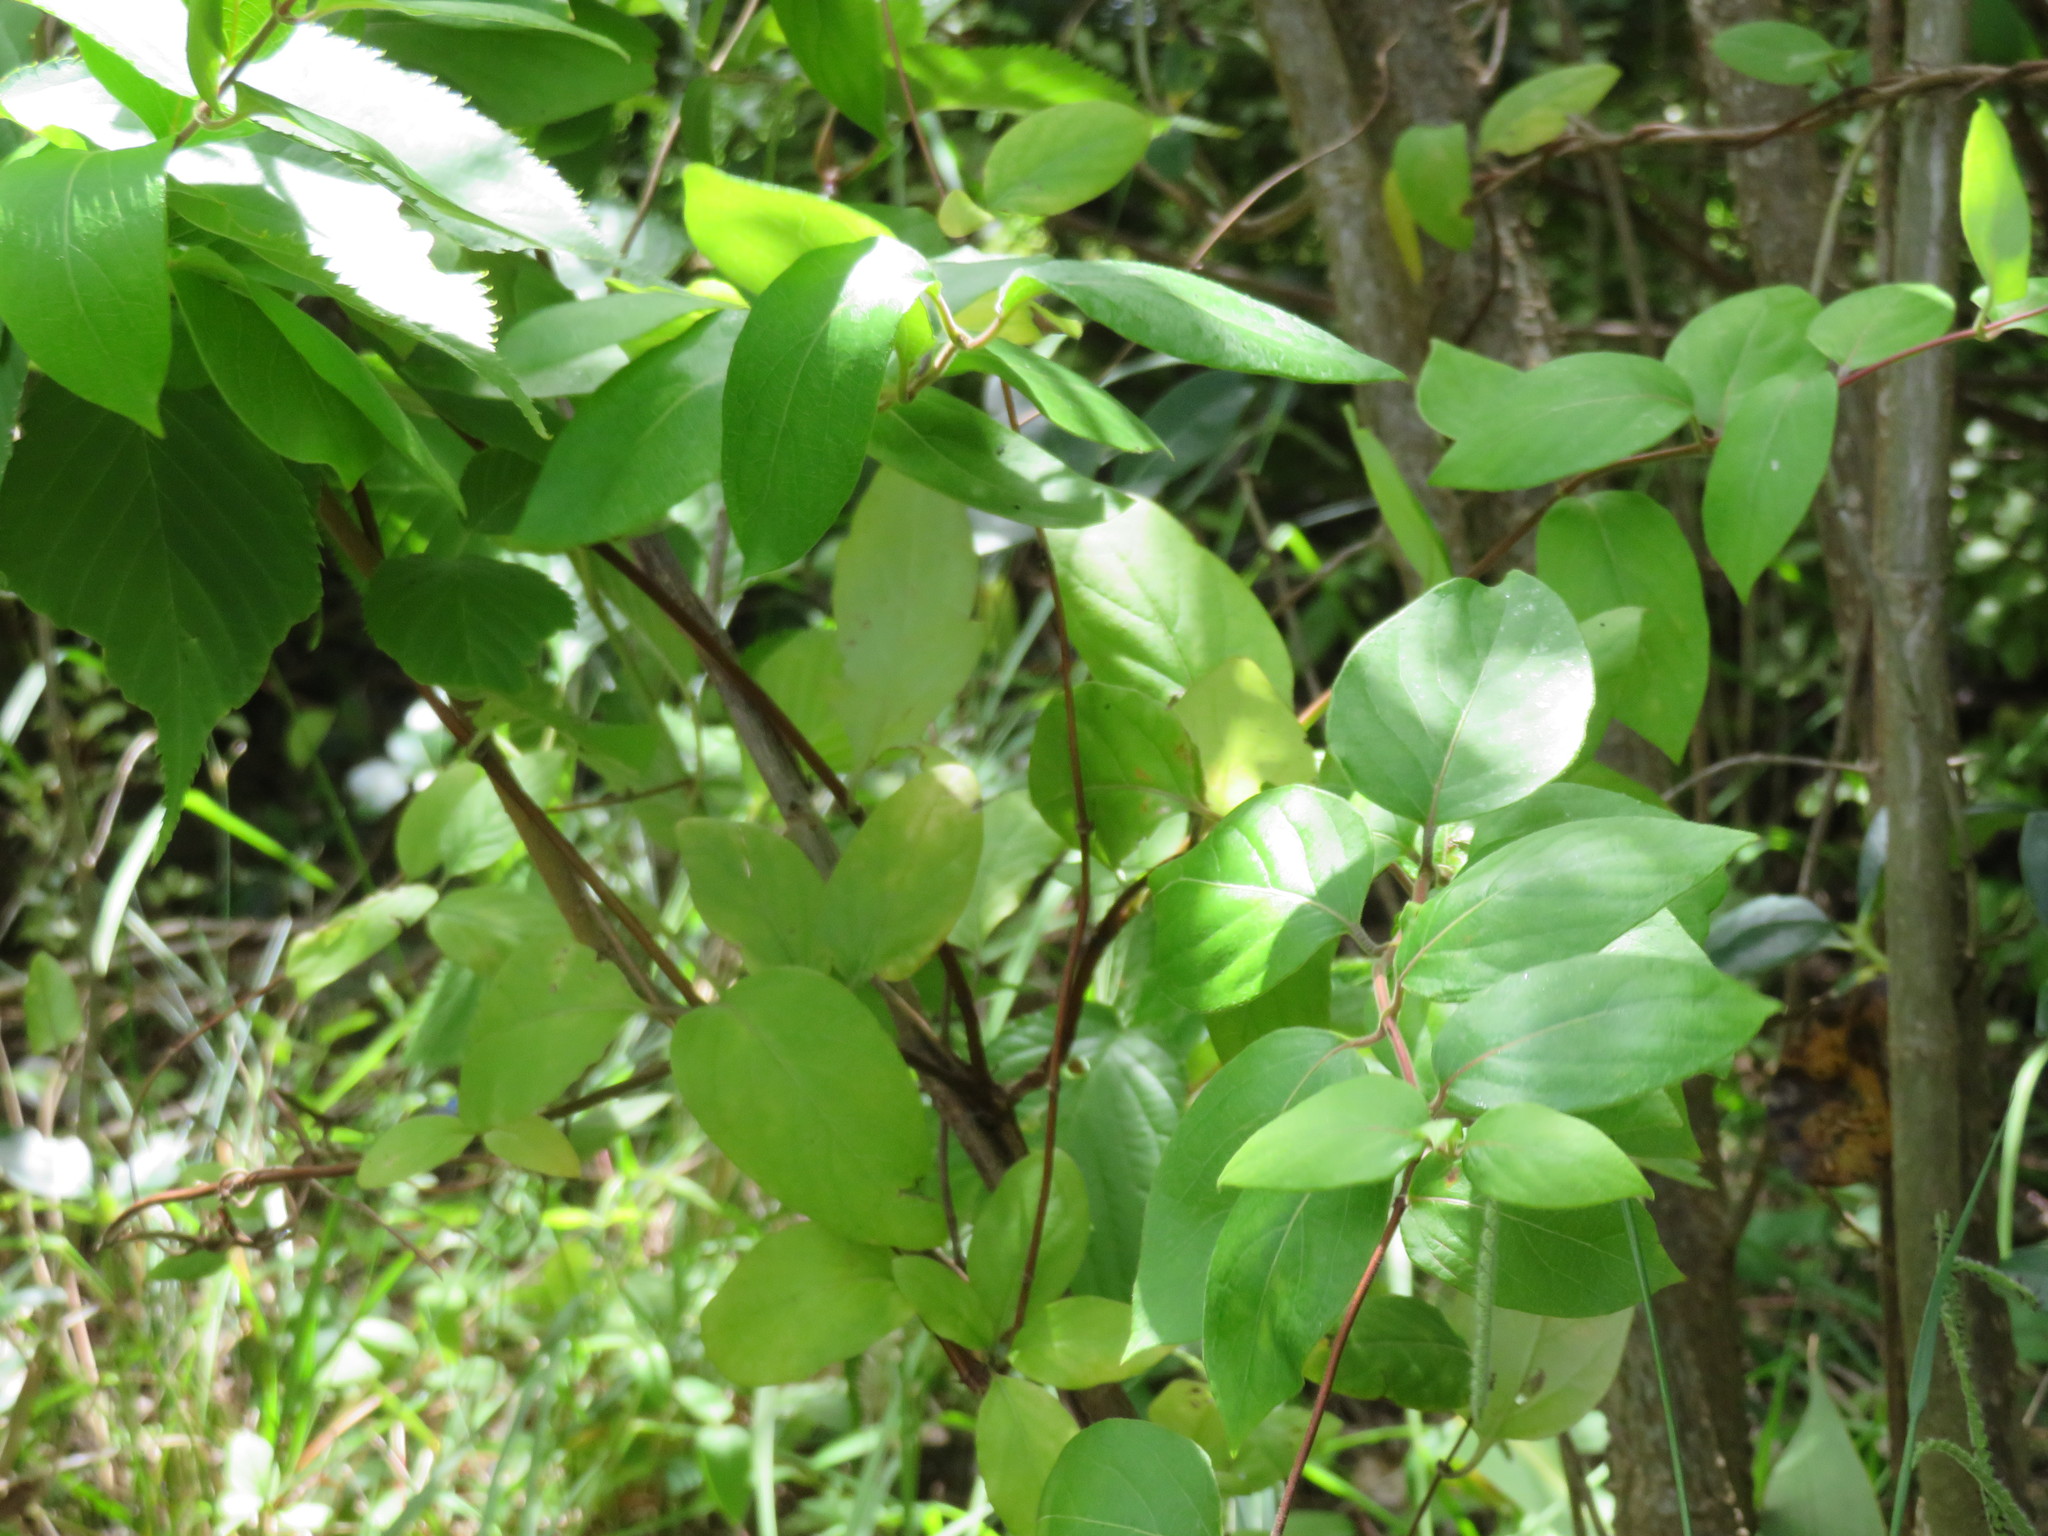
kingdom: Plantae
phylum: Tracheophyta
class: Magnoliopsida
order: Dipsacales
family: Caprifoliaceae
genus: Lonicera
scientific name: Lonicera japonica
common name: Japanese honeysuckle
